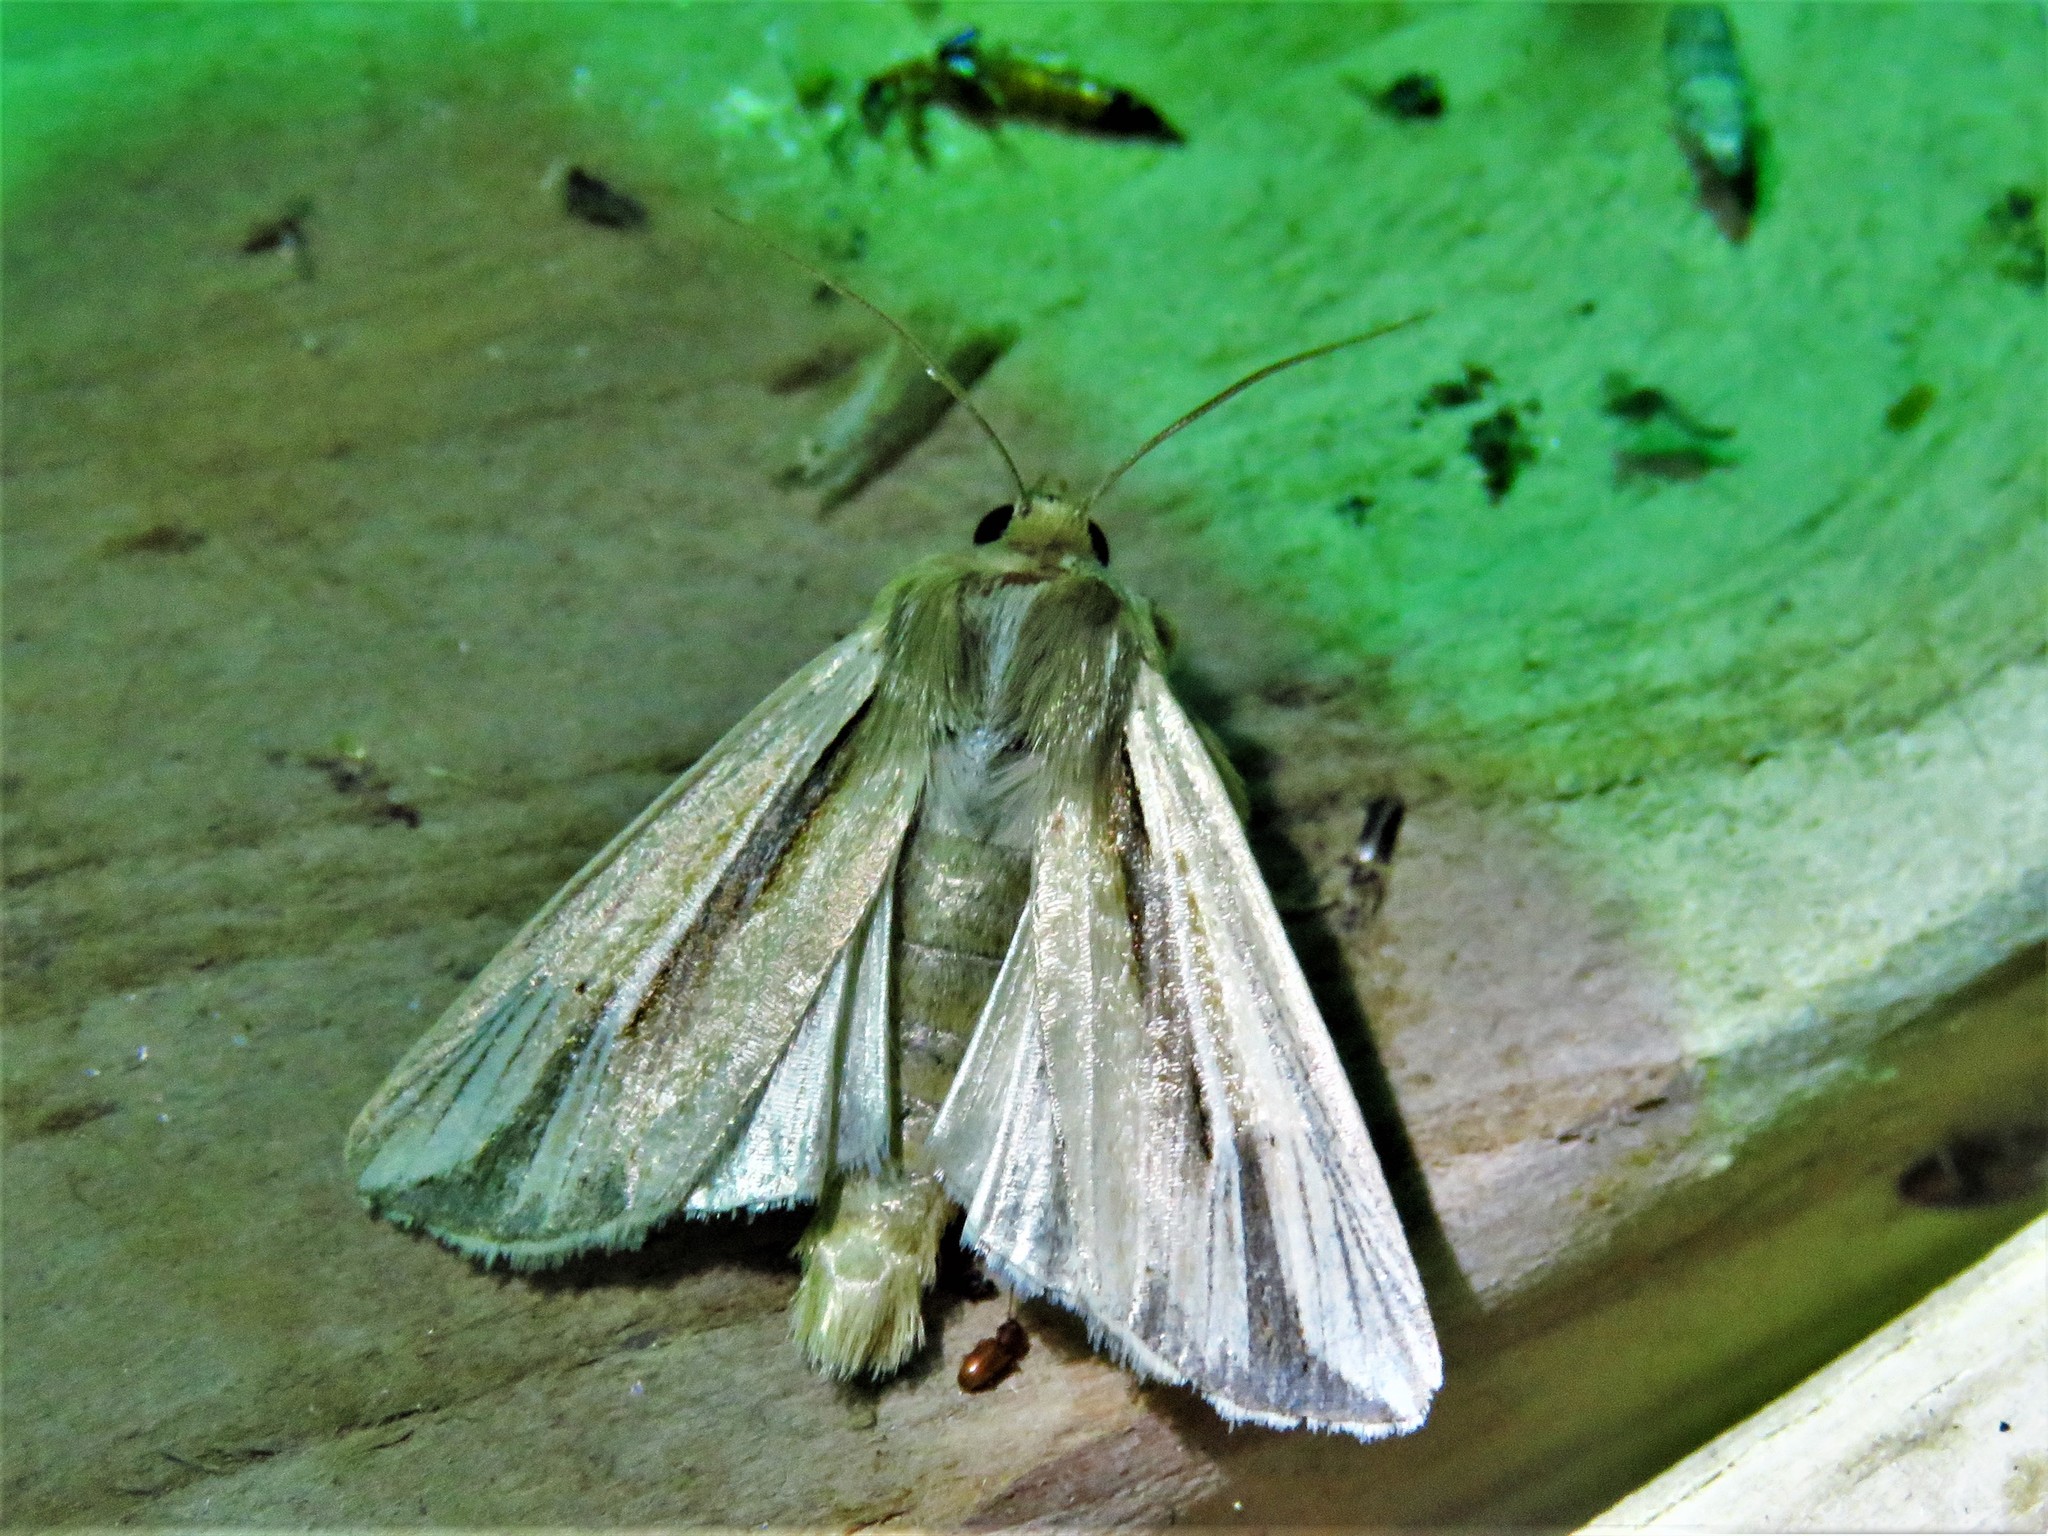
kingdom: Animalia
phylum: Arthropoda
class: Insecta
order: Lepidoptera
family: Noctuidae
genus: Dargida
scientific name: Dargida diffusa
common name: Wheat head armyworm
